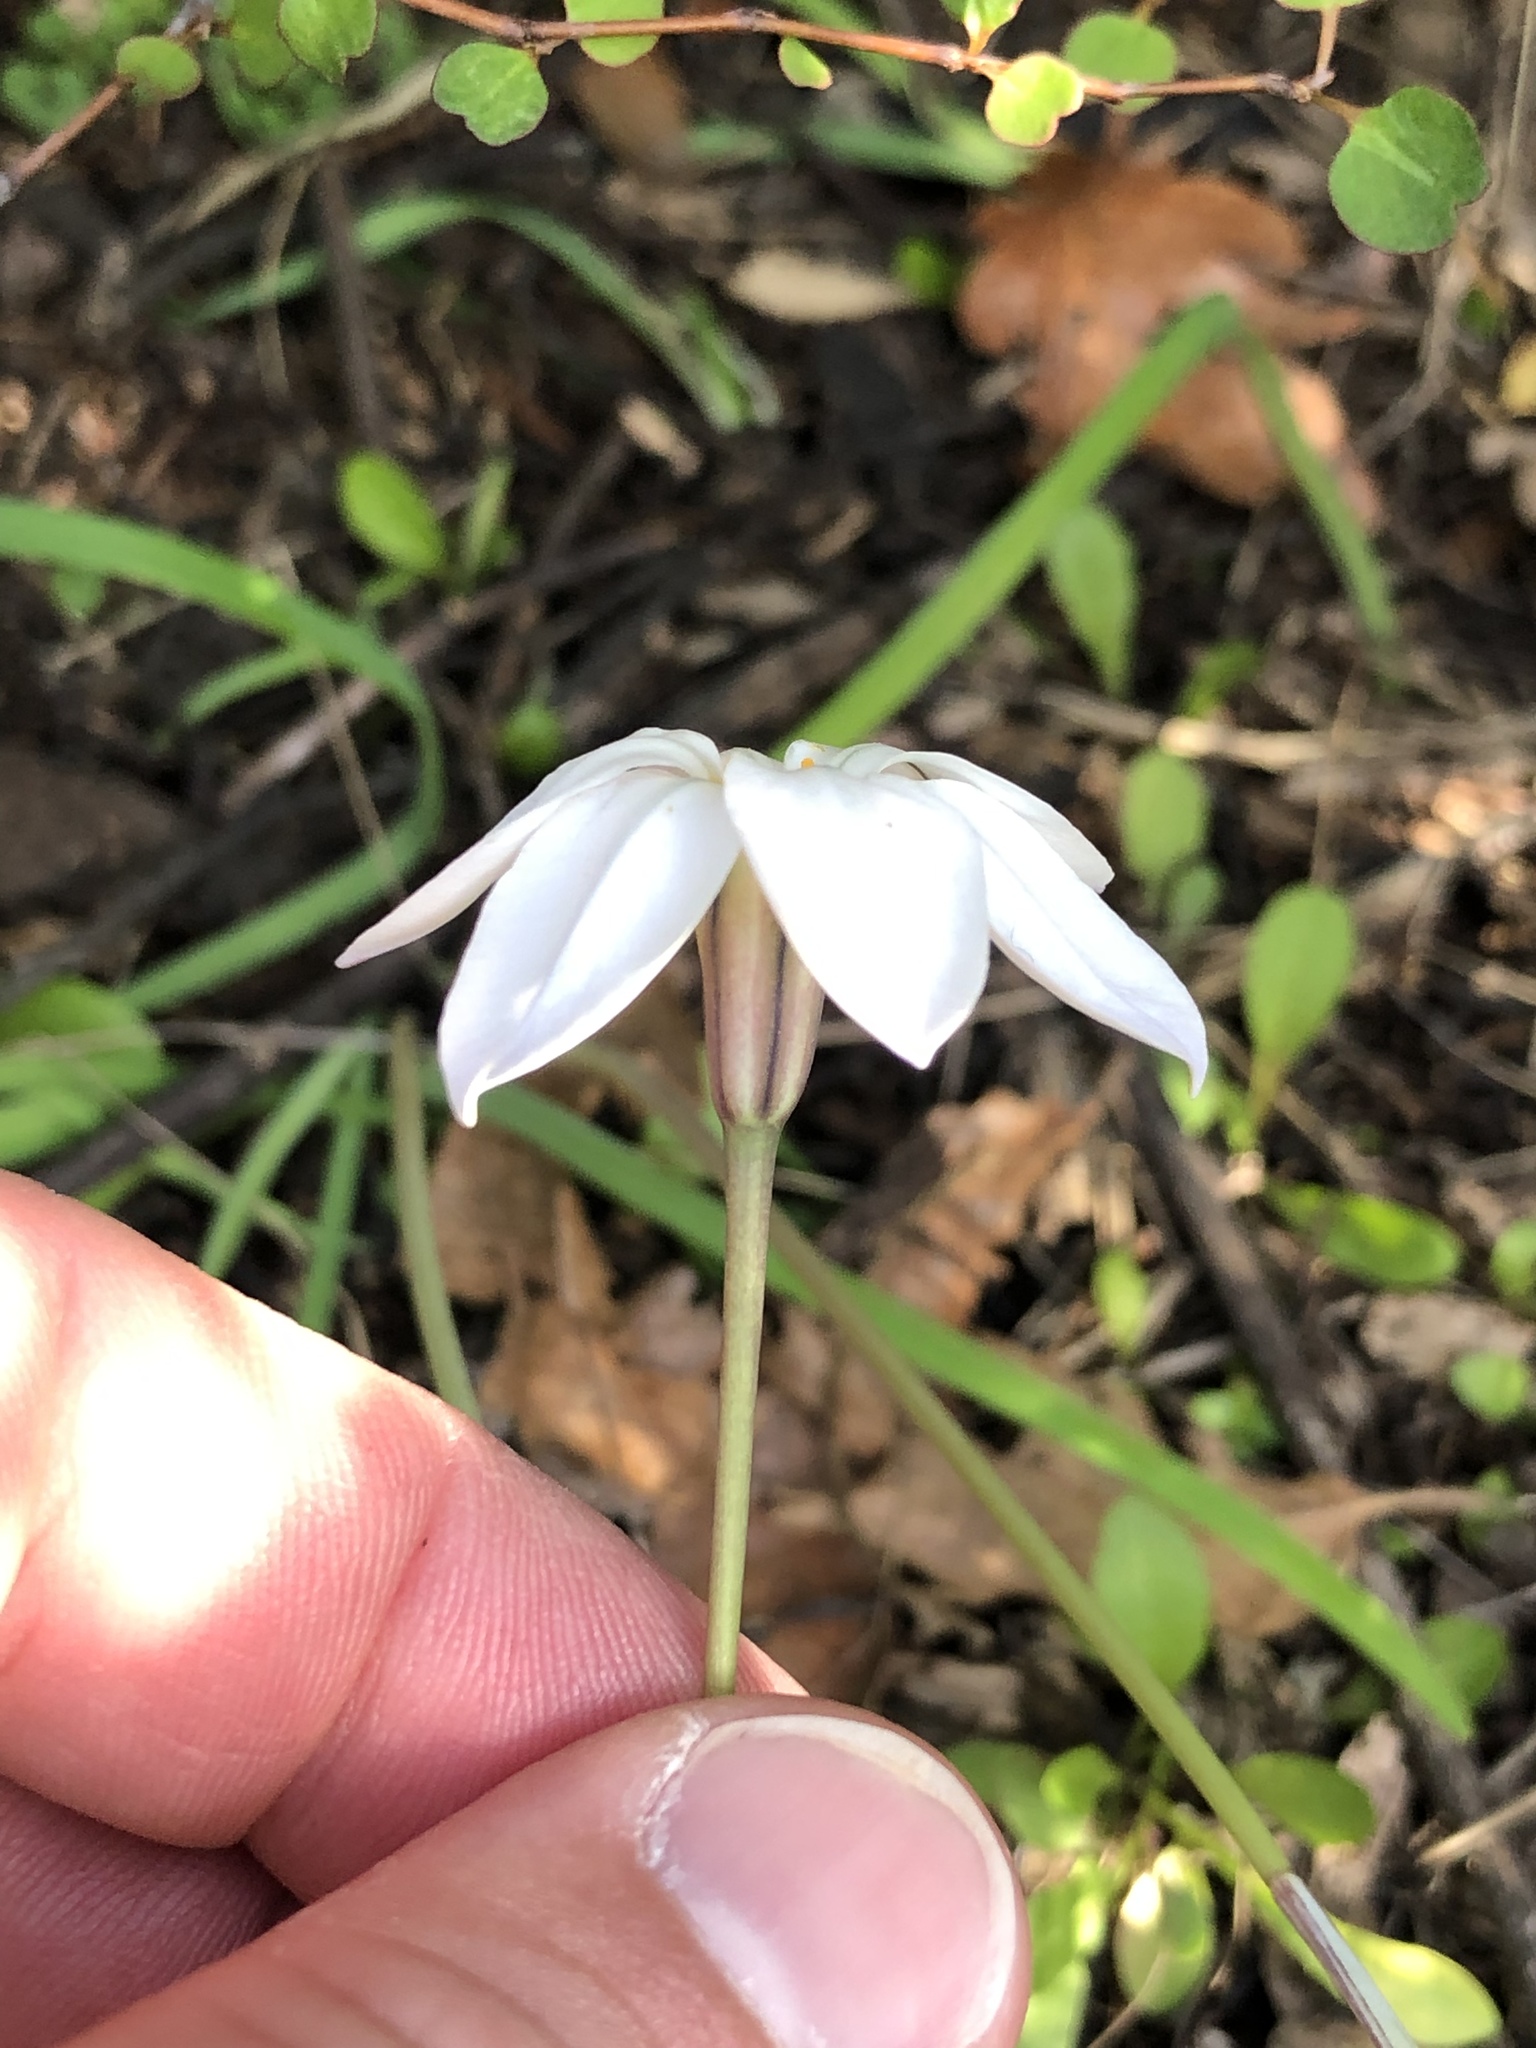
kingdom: Plantae
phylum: Tracheophyta
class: Liliopsida
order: Asparagales
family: Amaryllidaceae
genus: Ipheion
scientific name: Ipheion uniflorum
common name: Spring starflower
